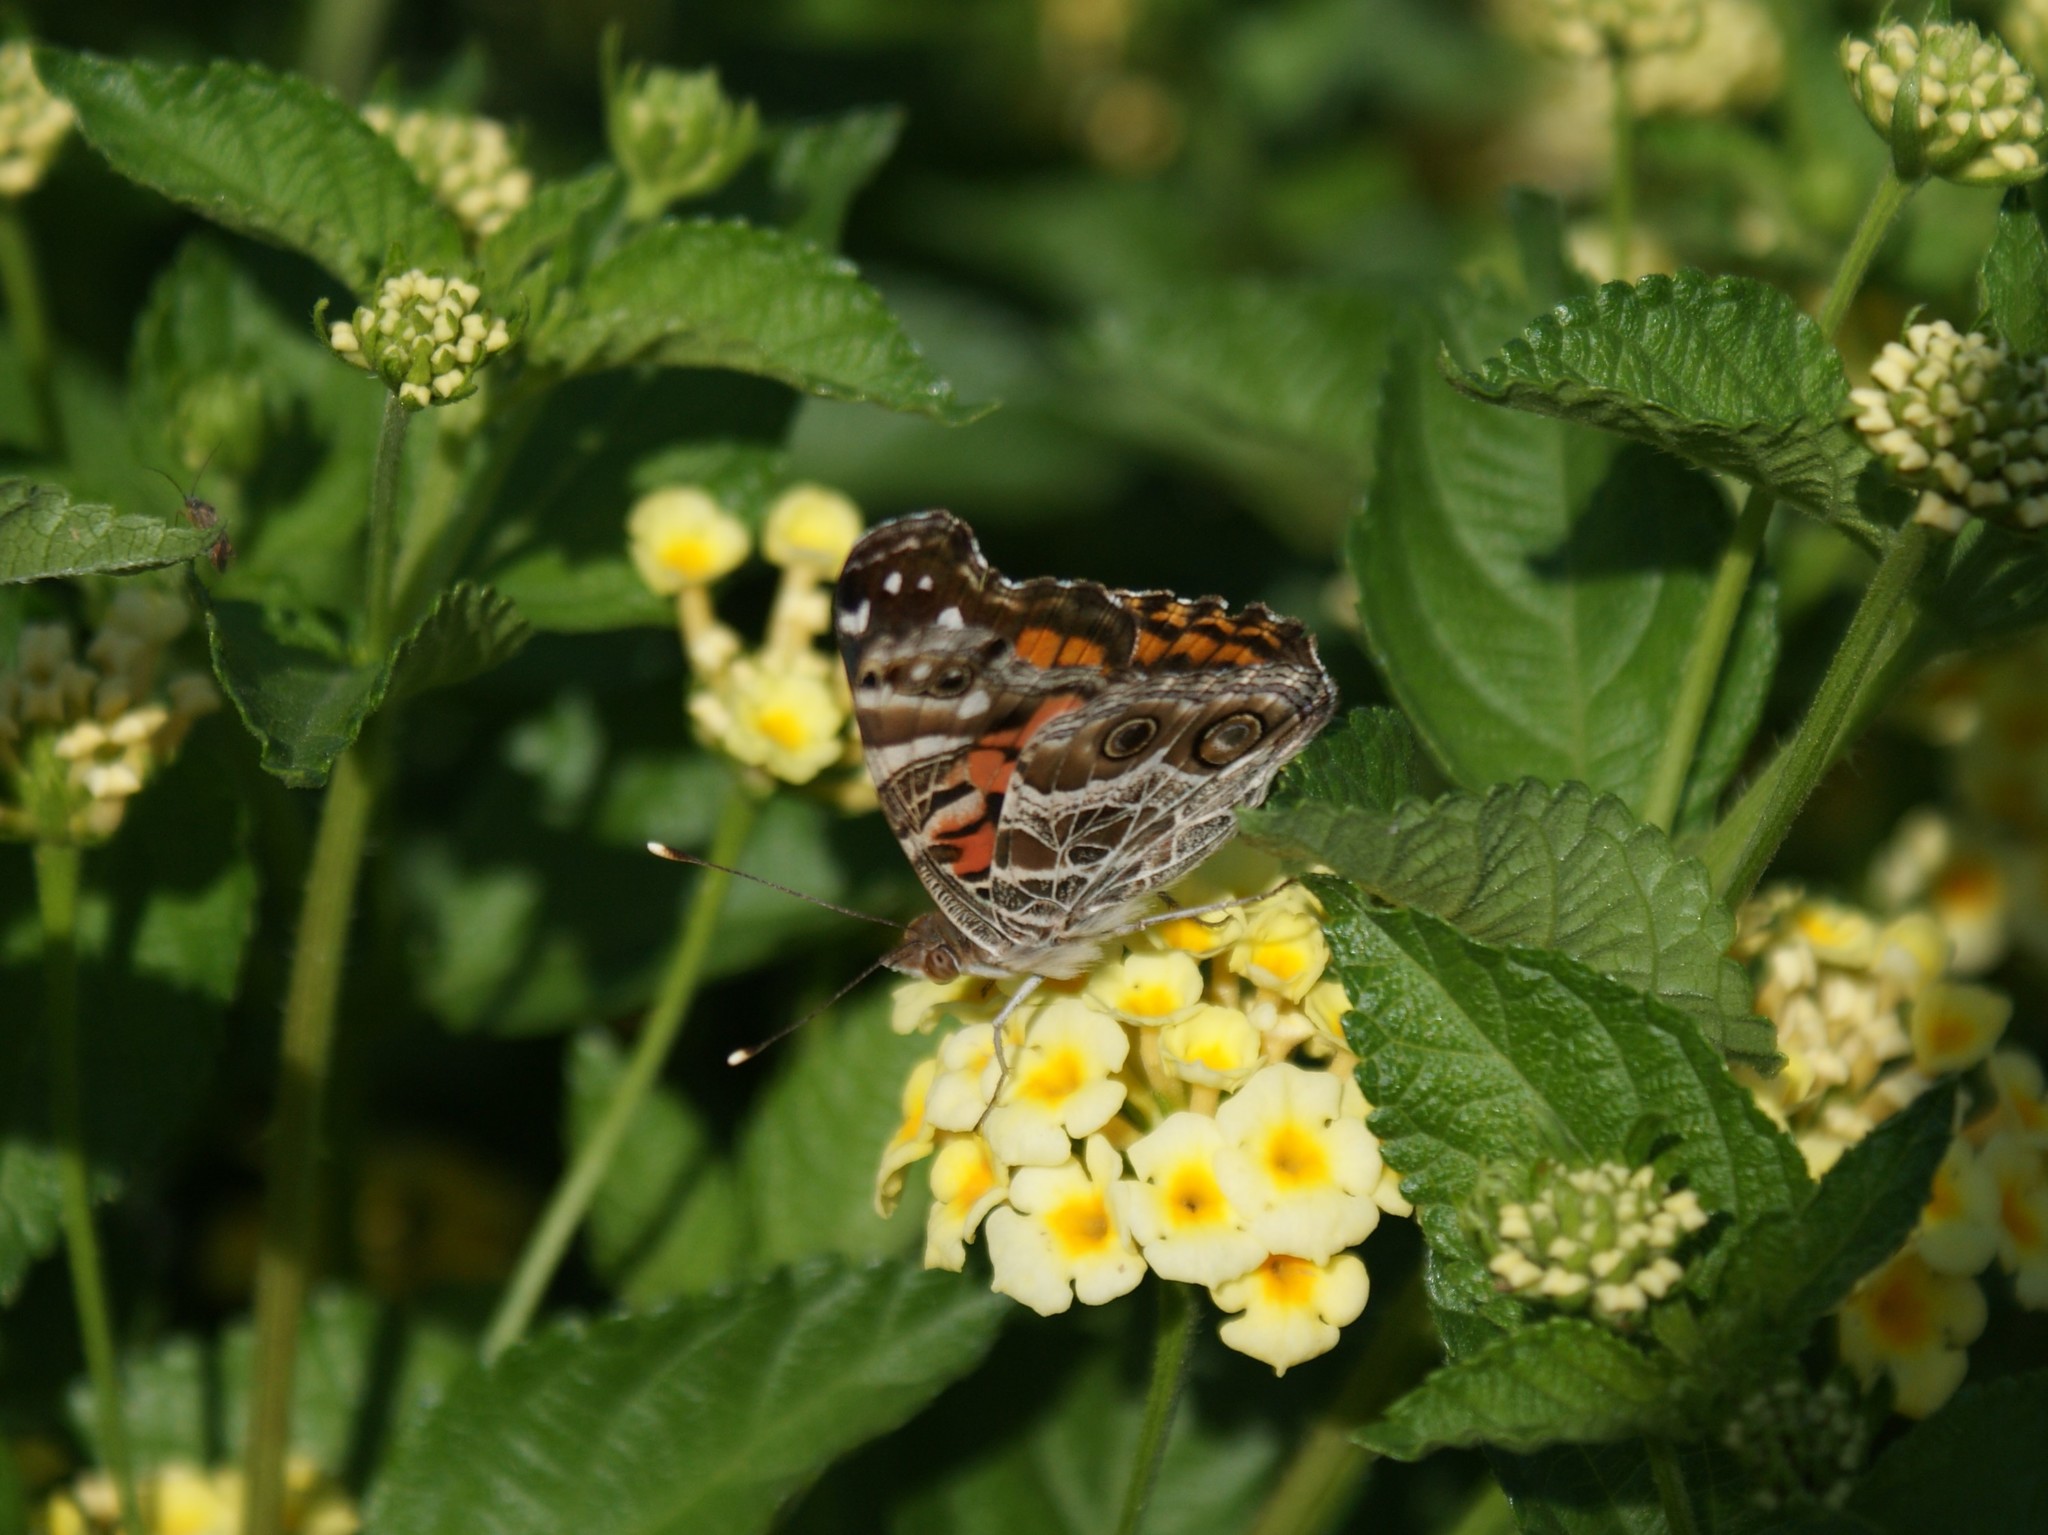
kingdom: Animalia
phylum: Arthropoda
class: Insecta
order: Lepidoptera
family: Nymphalidae
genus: Vanessa
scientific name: Vanessa virginiensis
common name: American lady
